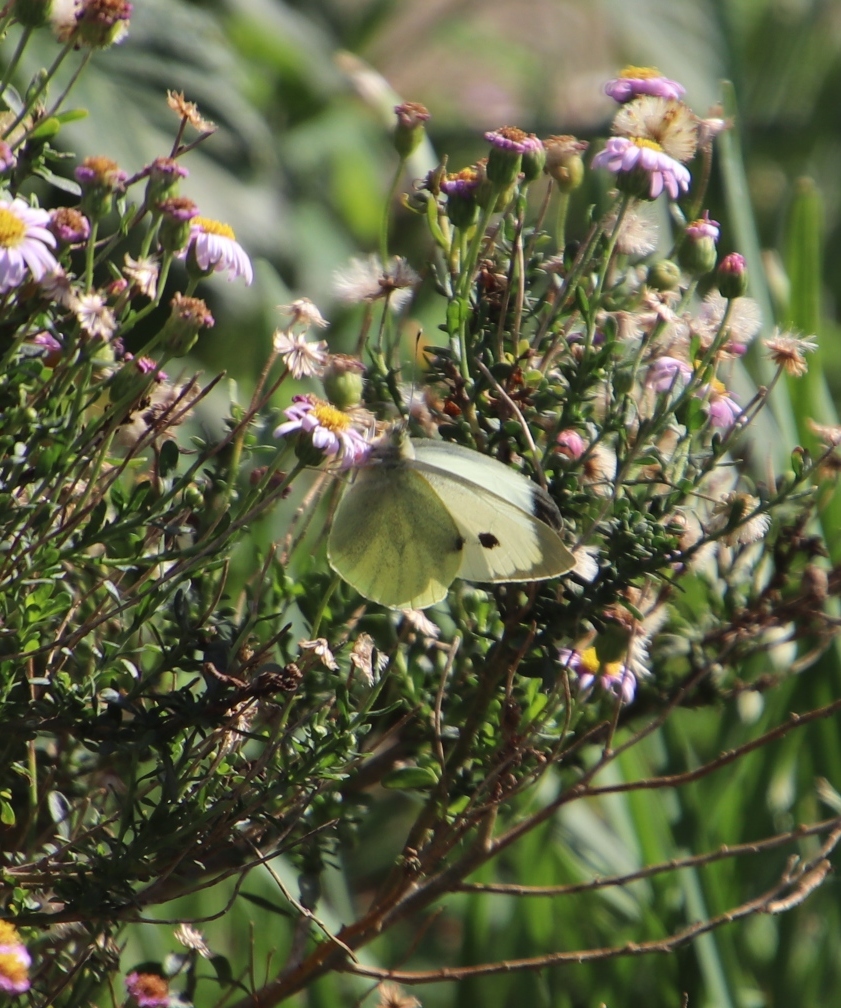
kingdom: Animalia
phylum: Arthropoda
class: Insecta
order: Lepidoptera
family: Pieridae
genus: Pieris
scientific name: Pieris brassicae
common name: Large white
